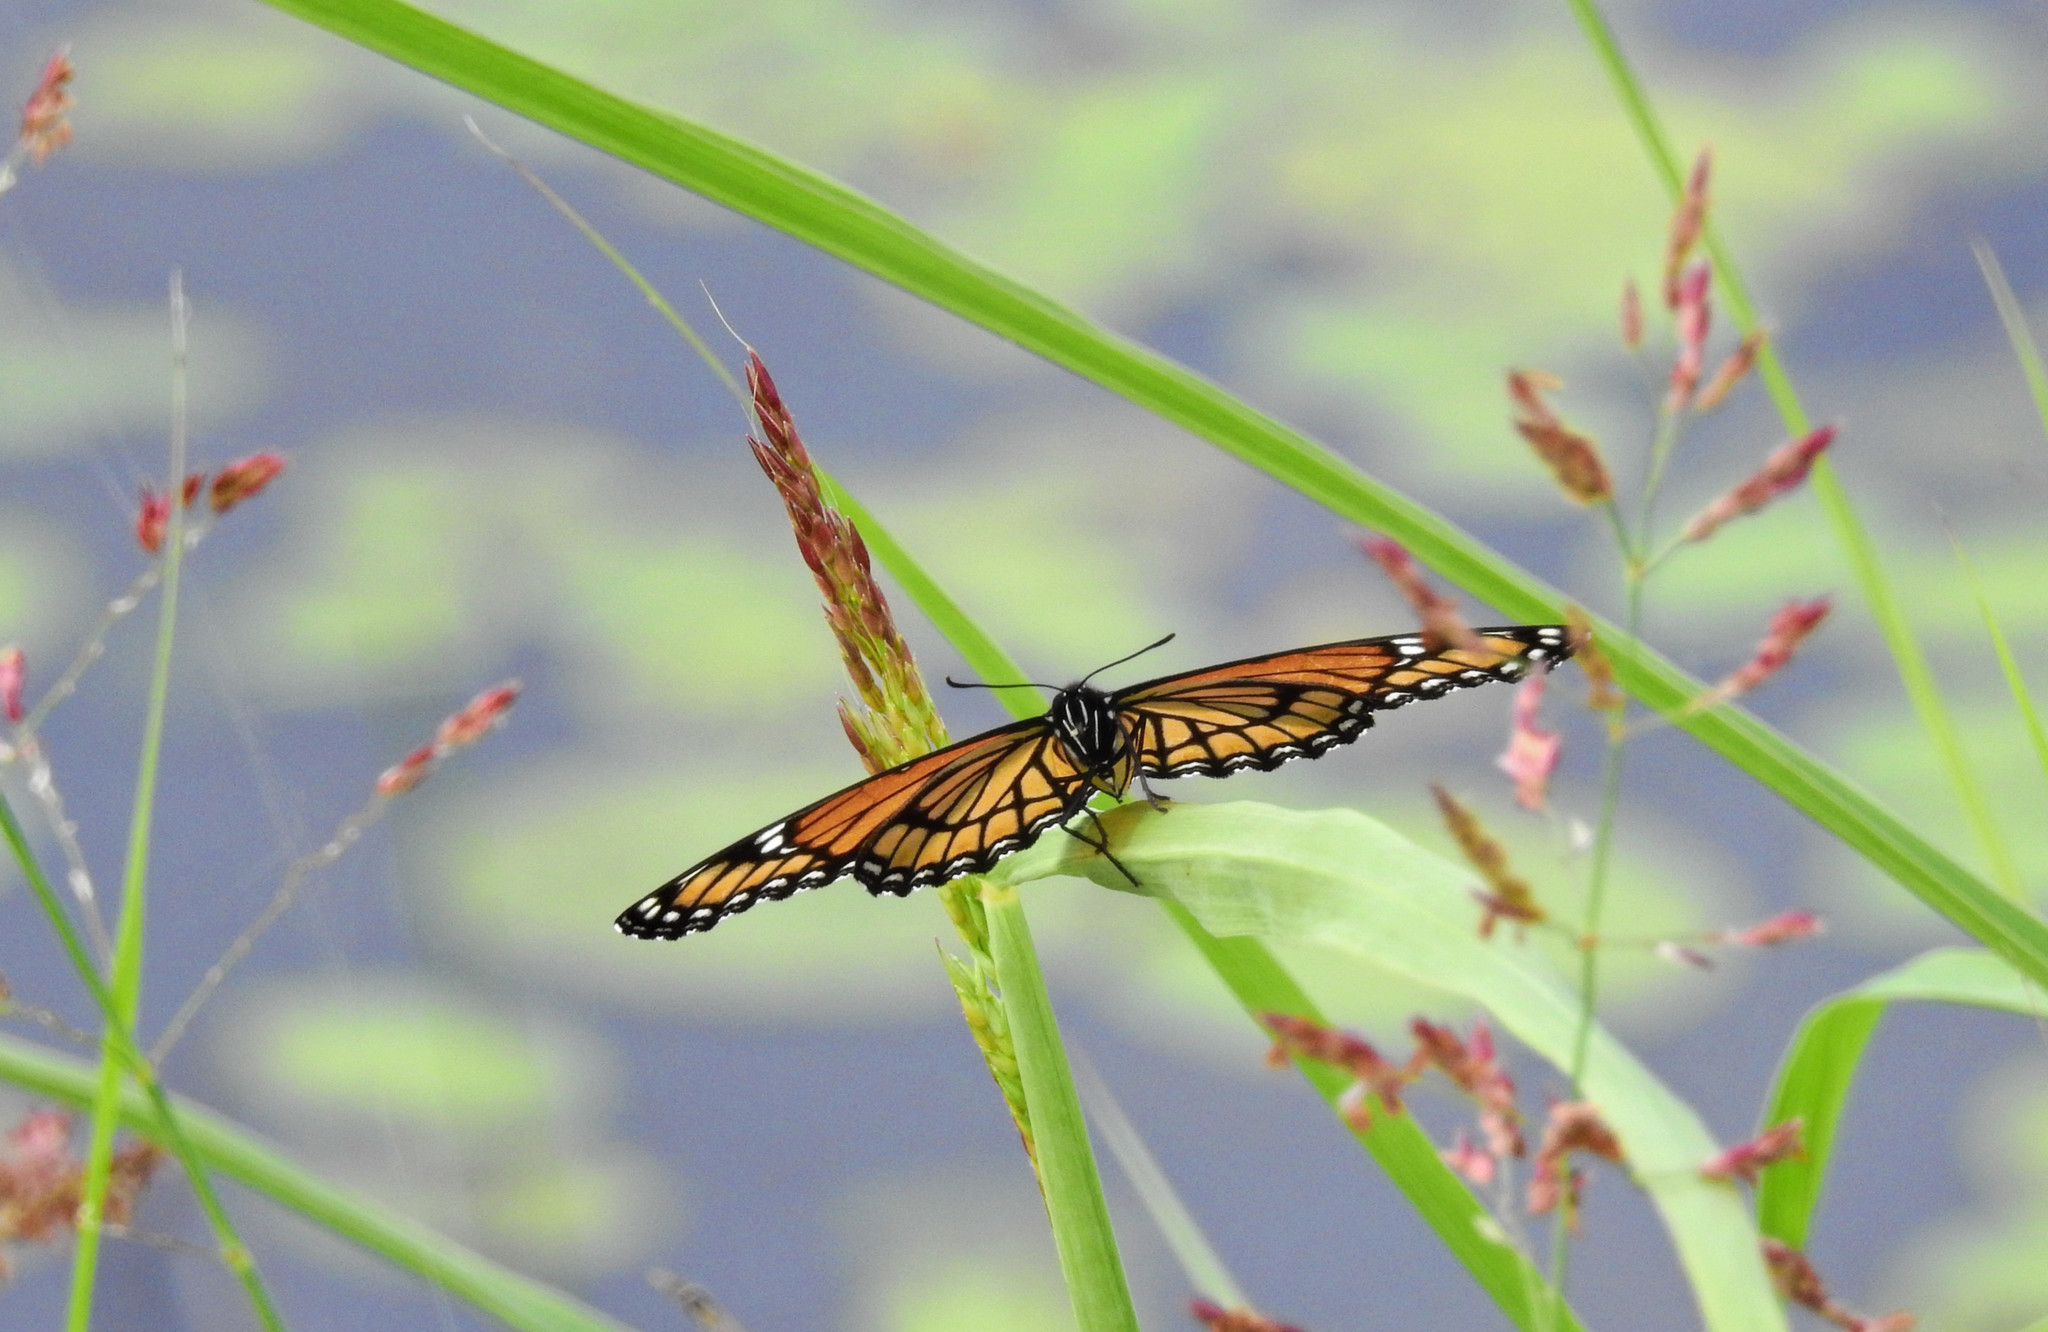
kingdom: Animalia
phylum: Arthropoda
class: Insecta
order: Lepidoptera
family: Nymphalidae
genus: Limenitis
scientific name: Limenitis archippus
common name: Viceroy
